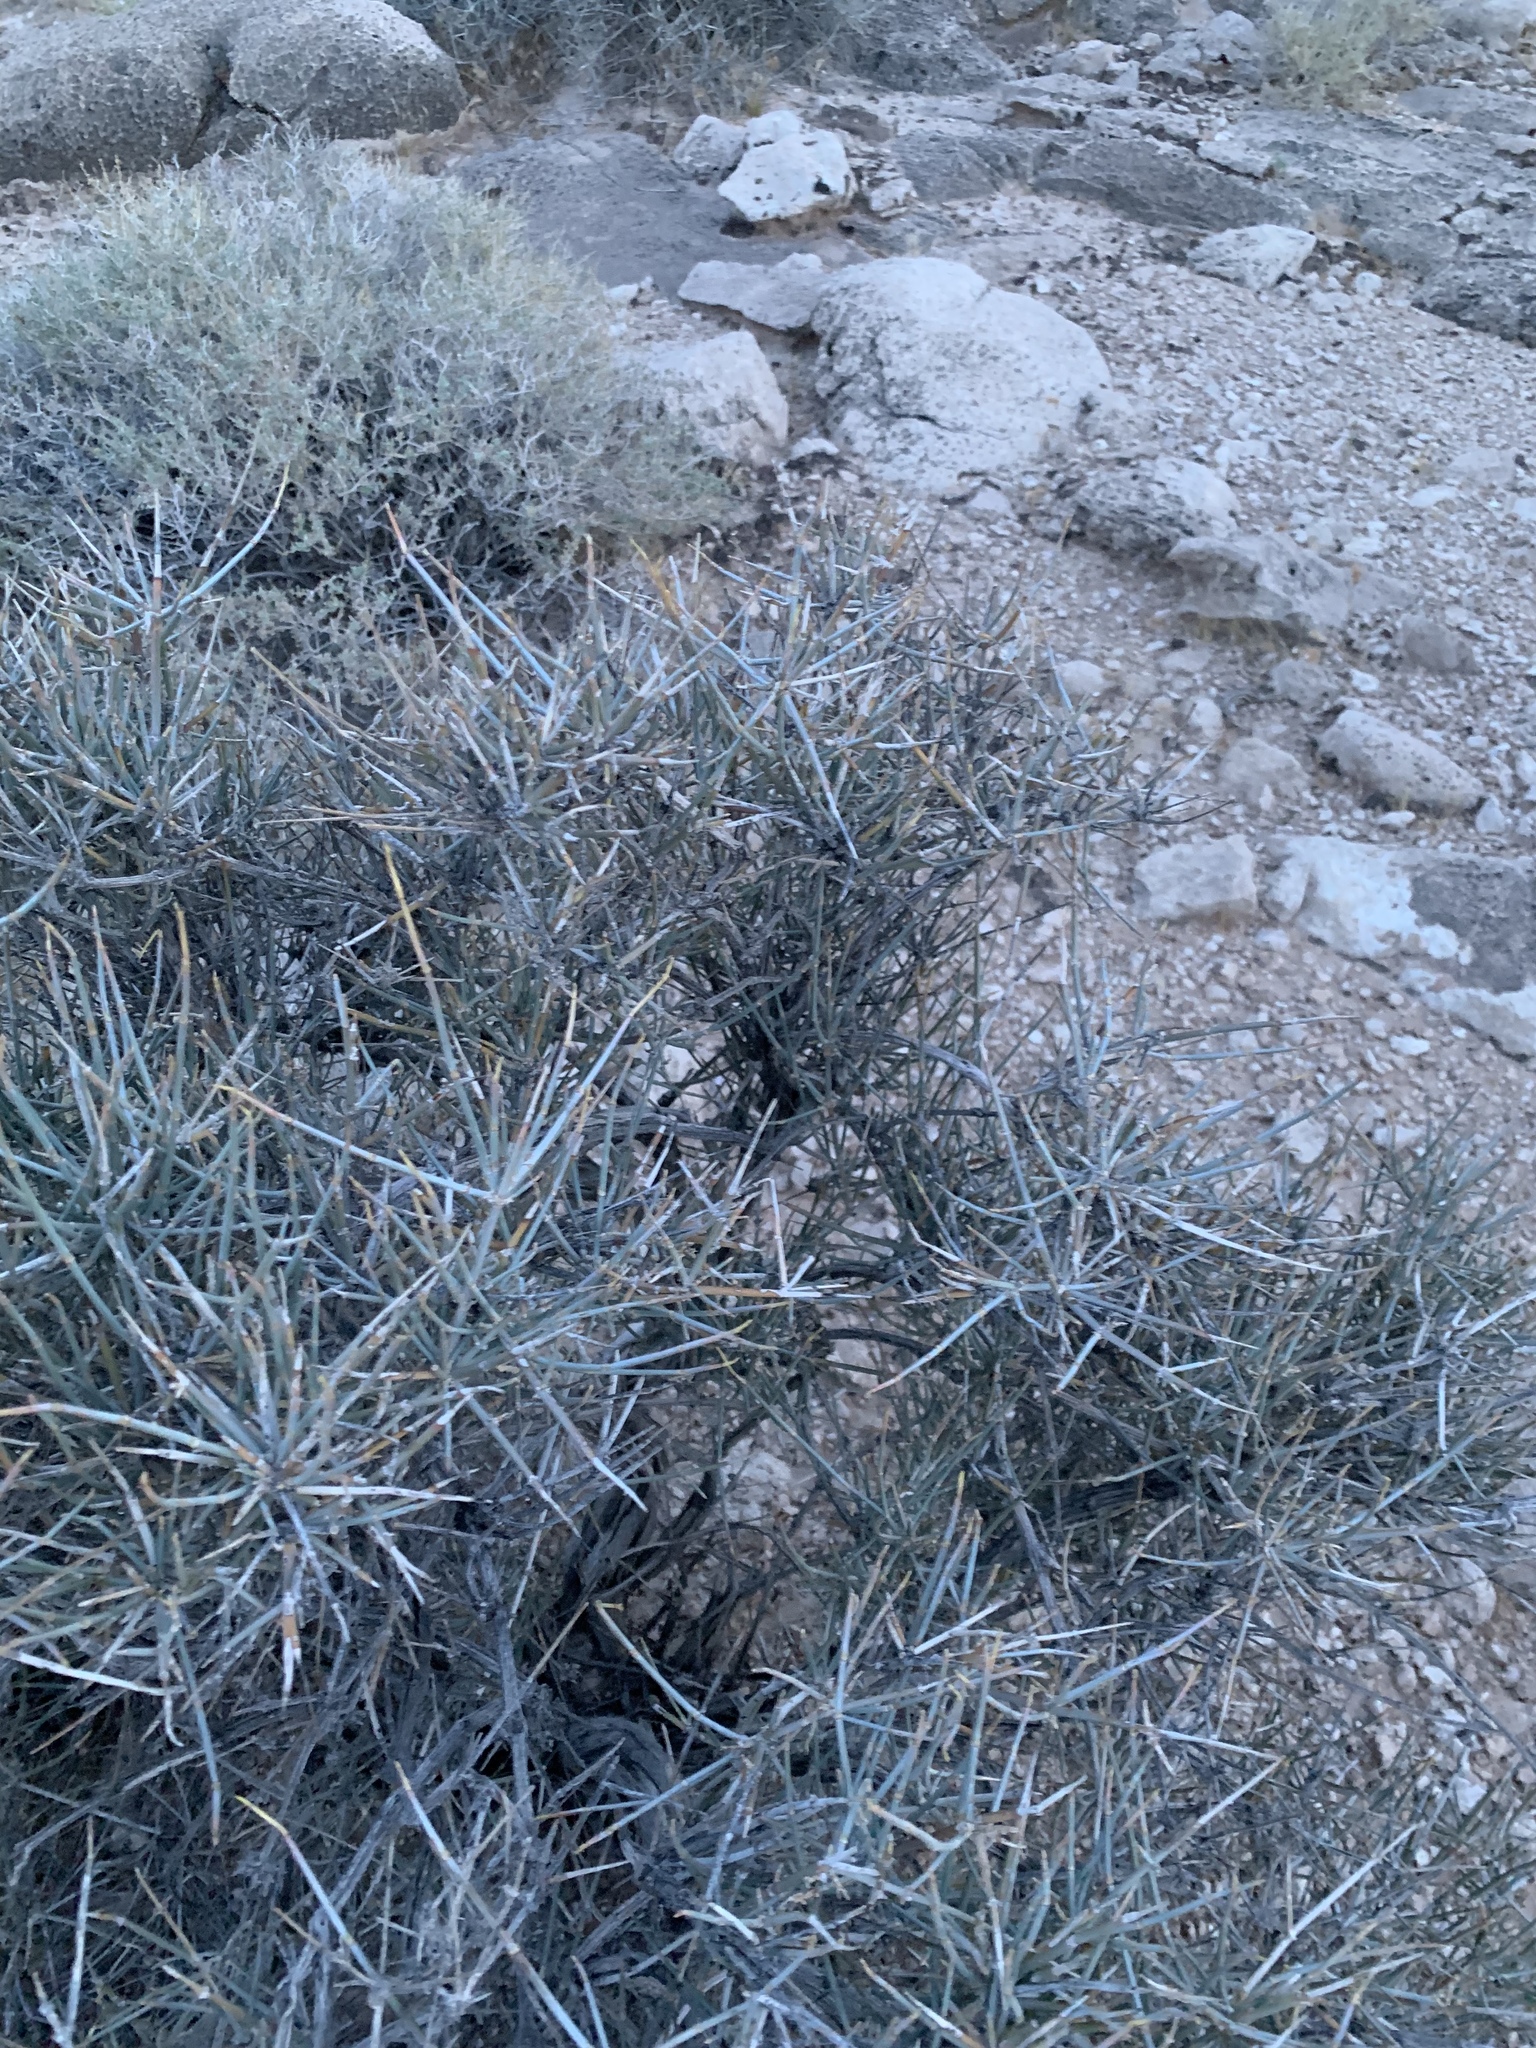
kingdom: Plantae
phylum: Tracheophyta
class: Gnetopsida
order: Ephedrales
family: Ephedraceae
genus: Ephedra
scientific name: Ephedra nevadensis
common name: Gray ephedra
